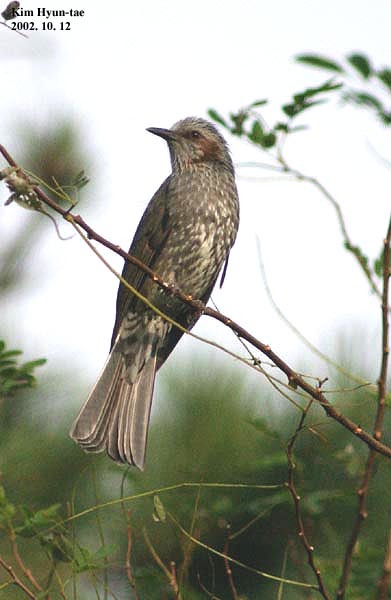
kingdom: Animalia
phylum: Chordata
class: Aves
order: Passeriformes
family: Pycnonotidae
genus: Hypsipetes
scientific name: Hypsipetes amaurotis
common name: Brown-eared bulbul
